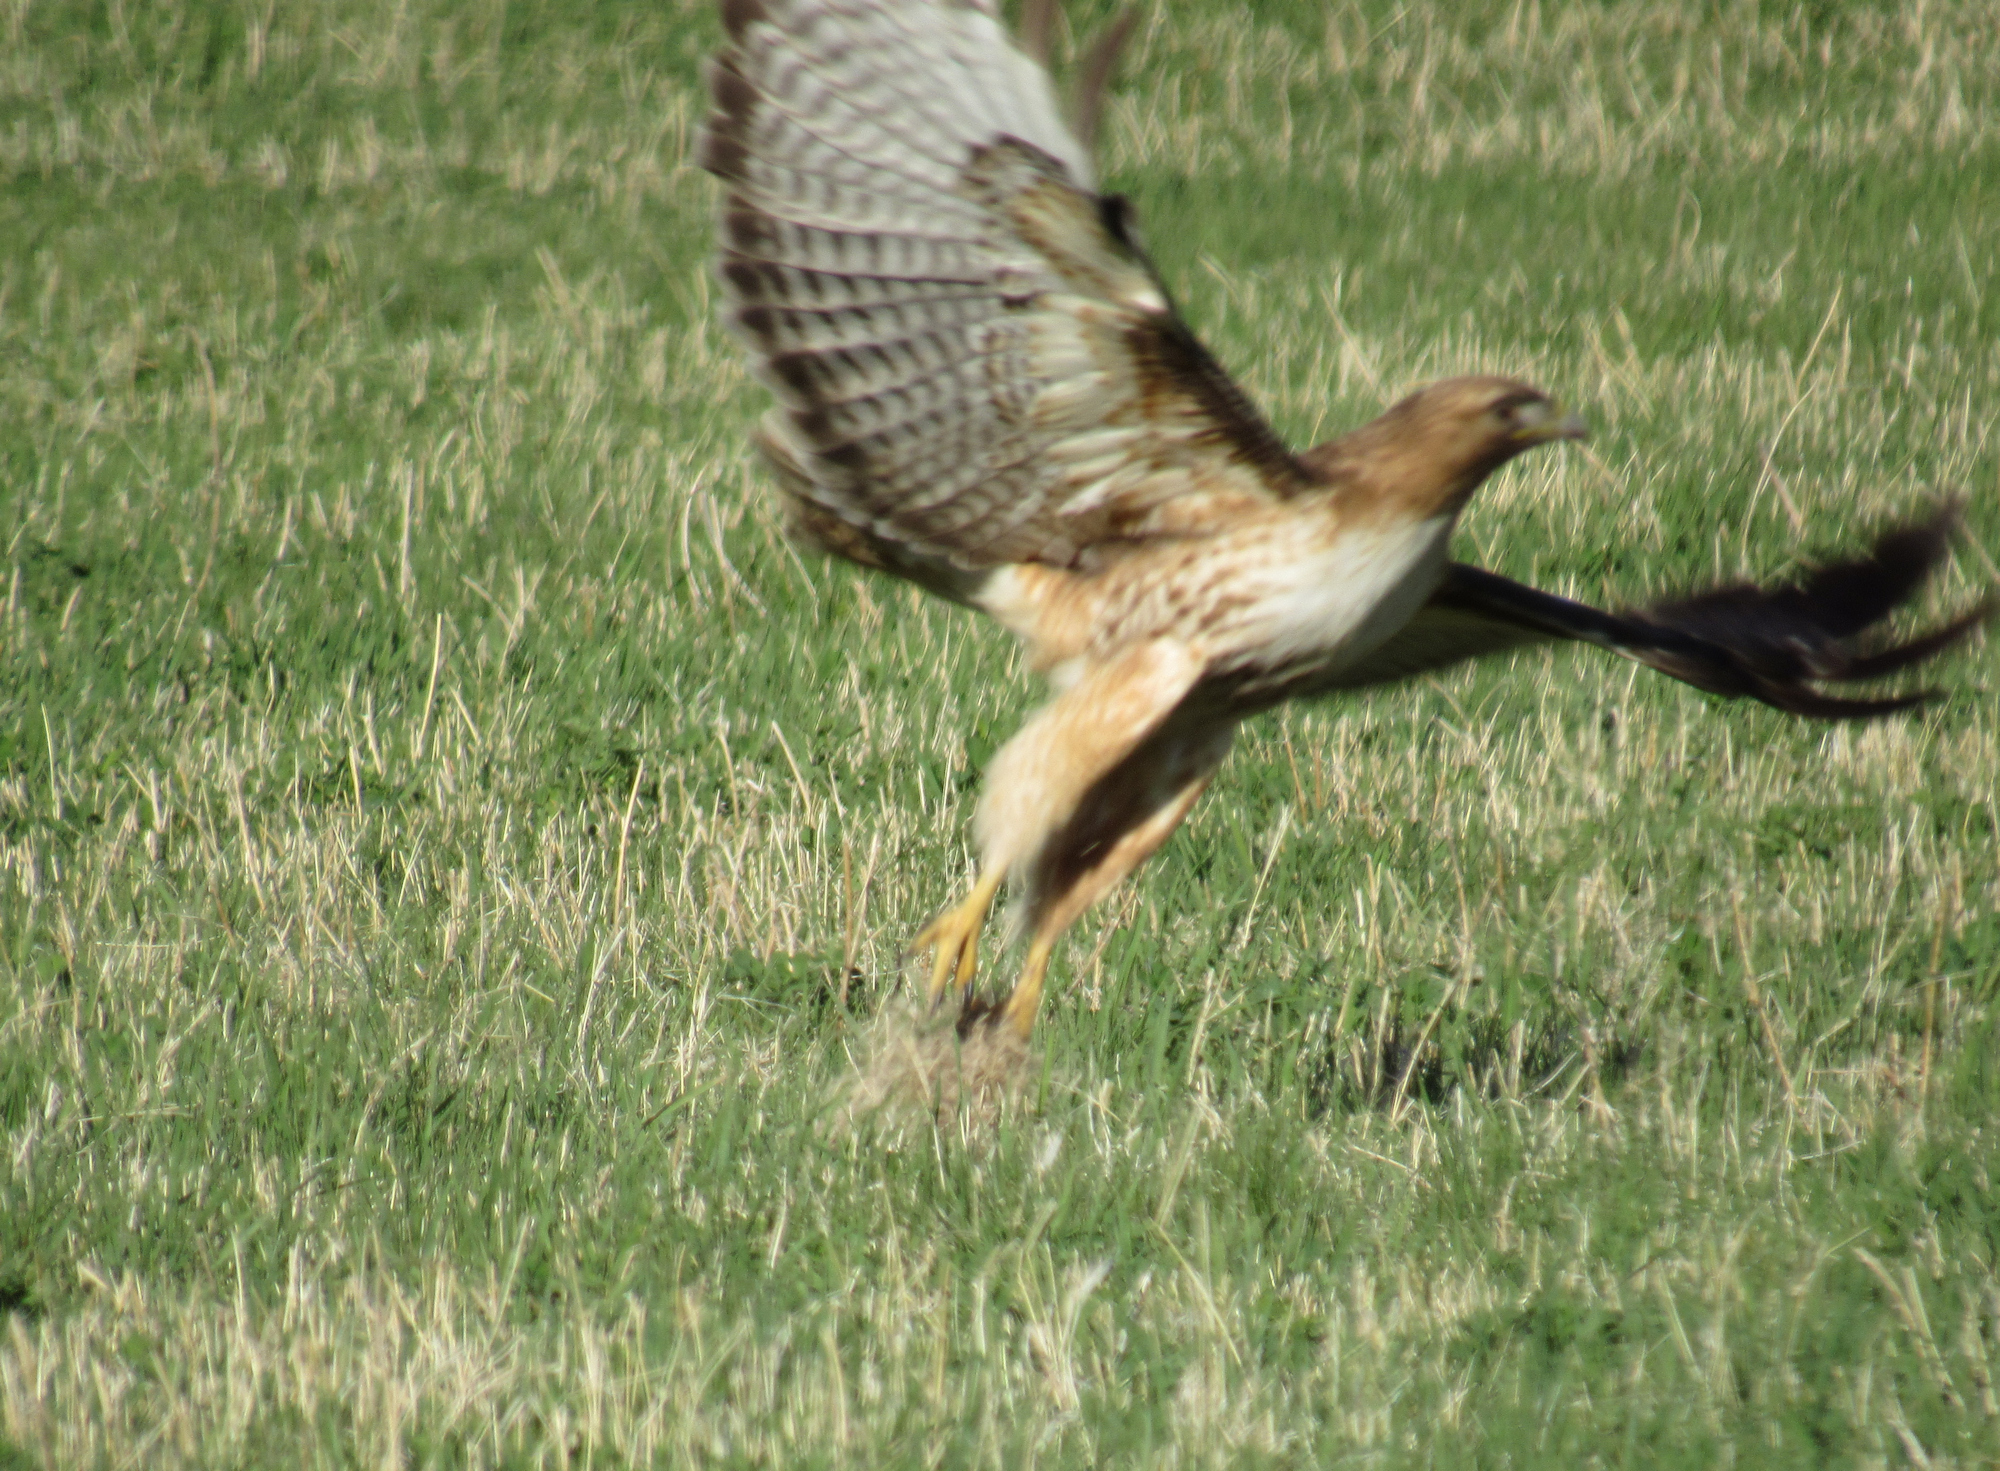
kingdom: Animalia
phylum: Chordata
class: Aves
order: Accipitriformes
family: Accipitridae
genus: Buteo
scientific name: Buteo jamaicensis
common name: Red-tailed hawk
